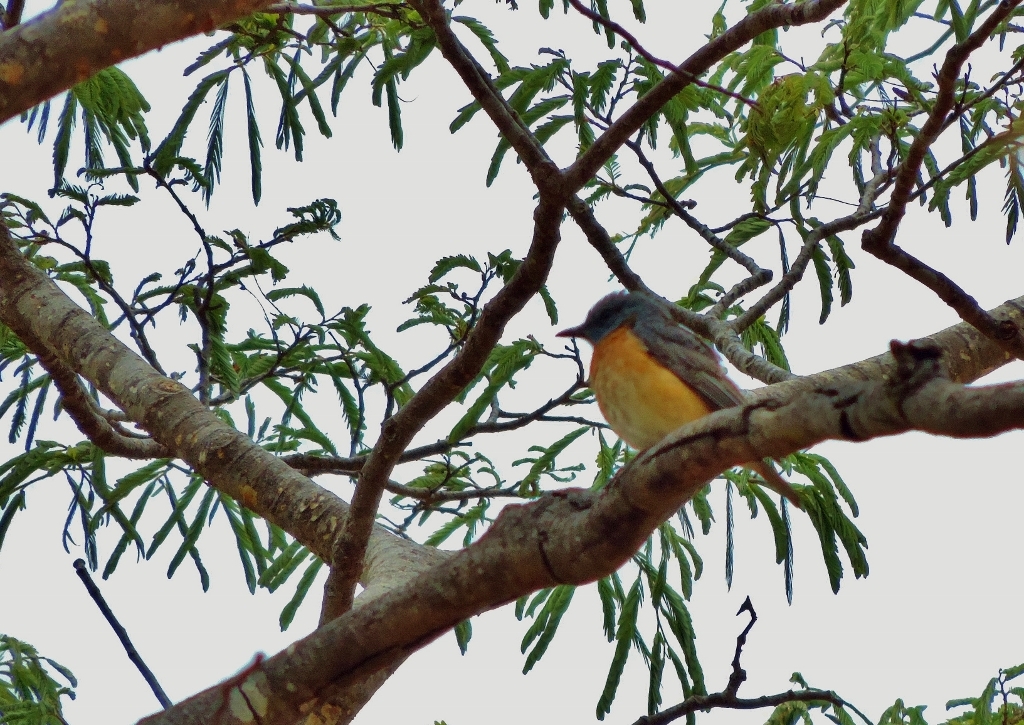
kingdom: Animalia
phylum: Chordata
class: Aves
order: Passeriformes
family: Muscicapidae
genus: Monticola
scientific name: Monticola angolensis
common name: Miombo rock thrush
